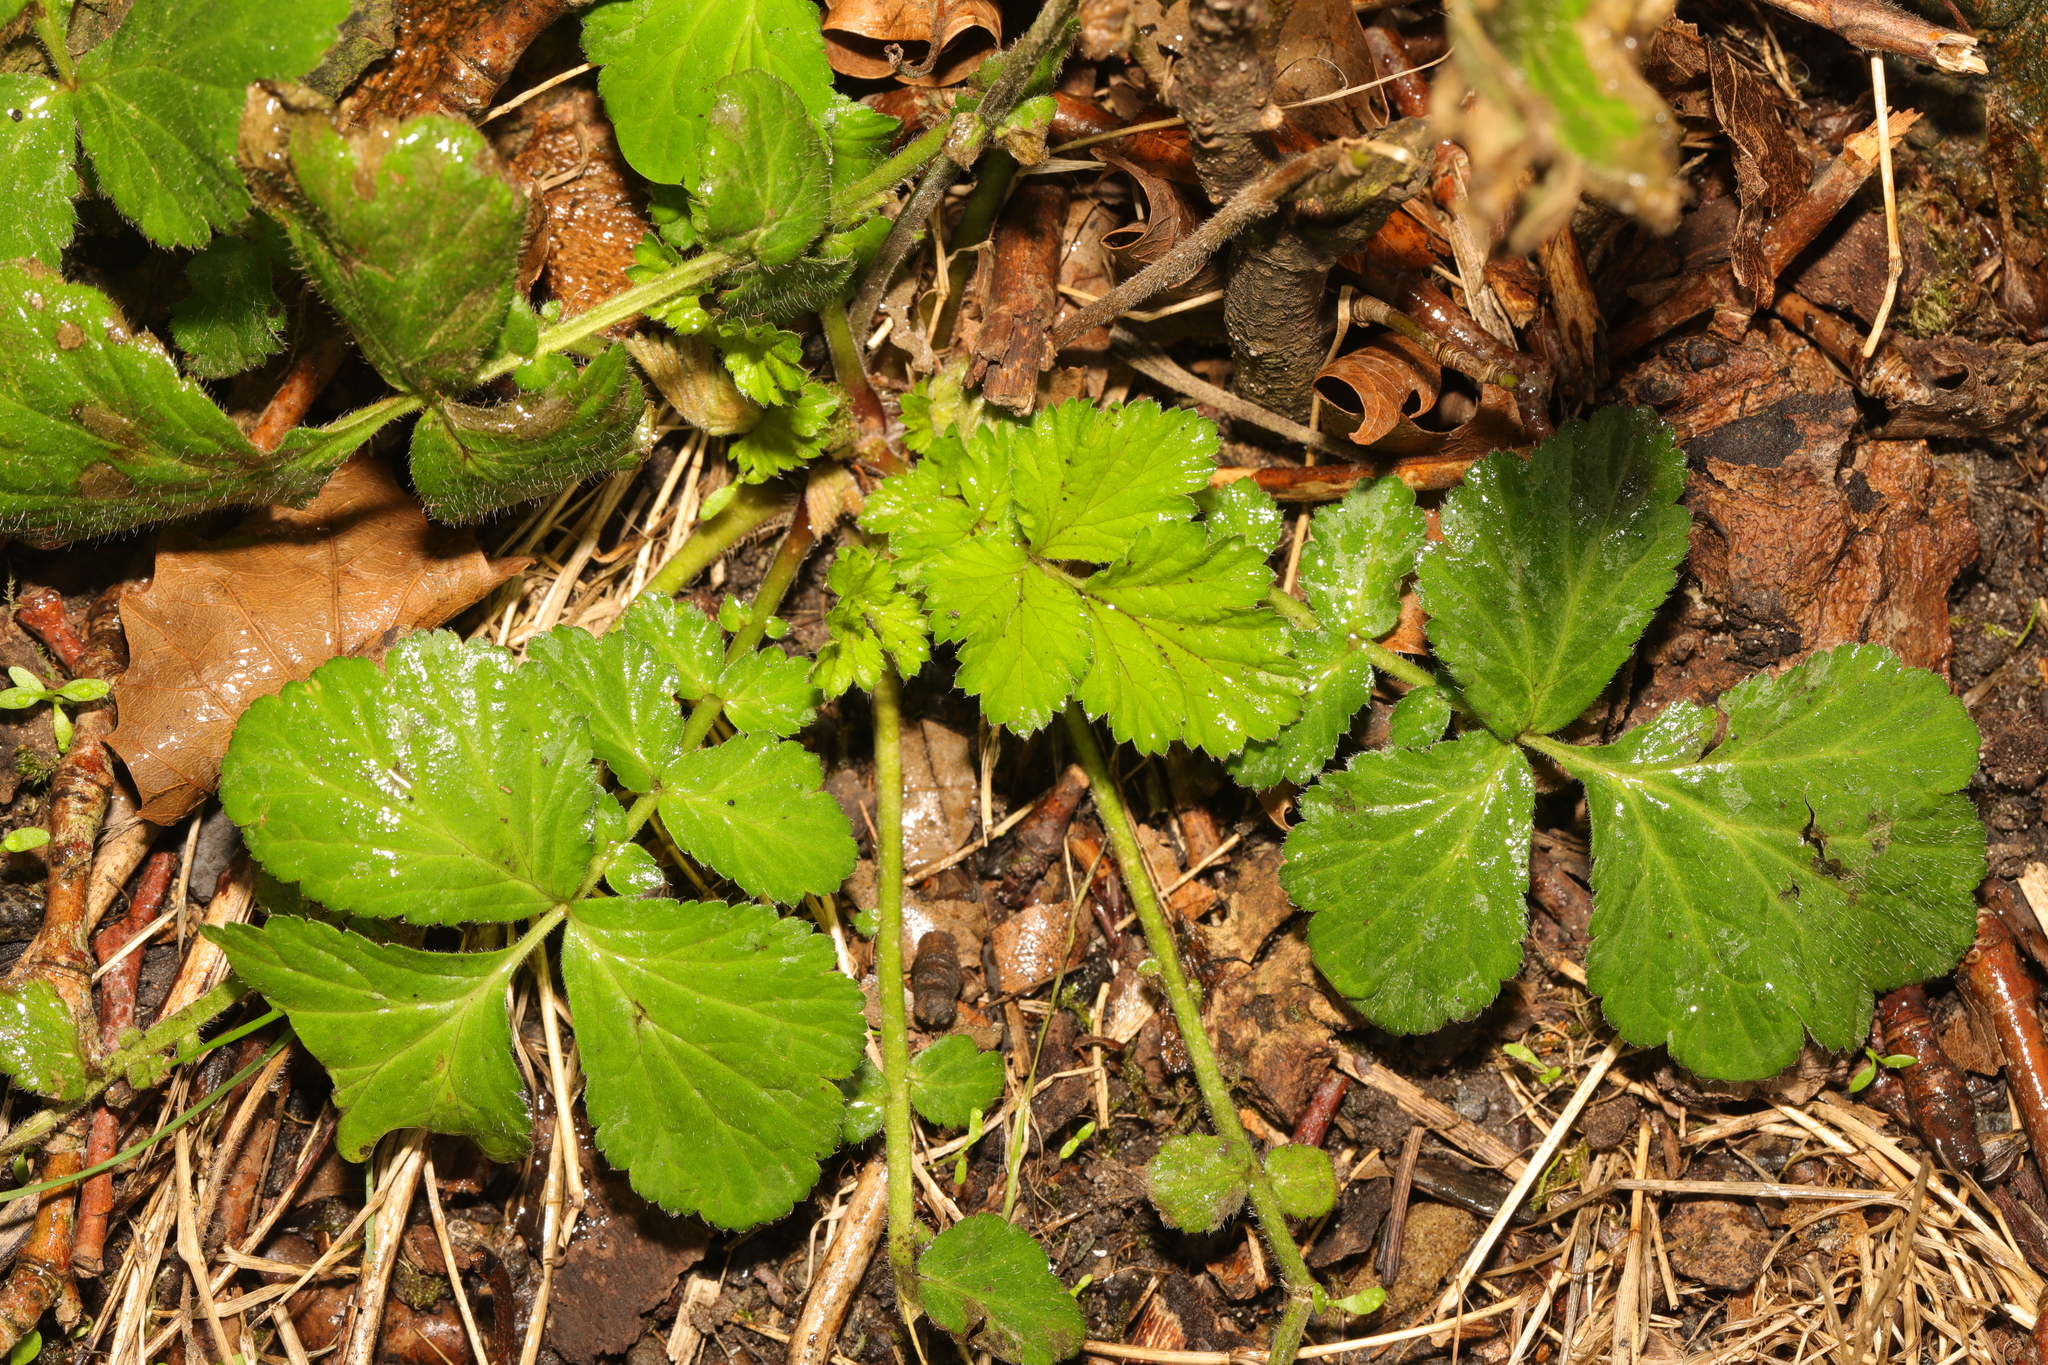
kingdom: Plantae
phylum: Tracheophyta
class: Magnoliopsida
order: Rosales
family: Rosaceae
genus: Geum
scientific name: Geum urbanum
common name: Wood avens
